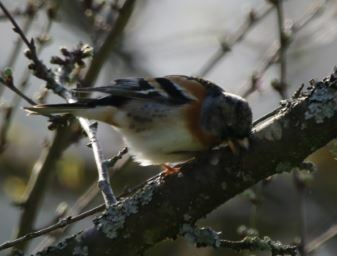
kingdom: Animalia
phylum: Chordata
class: Aves
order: Passeriformes
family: Fringillidae
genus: Fringilla
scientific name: Fringilla montifringilla
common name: Brambling
